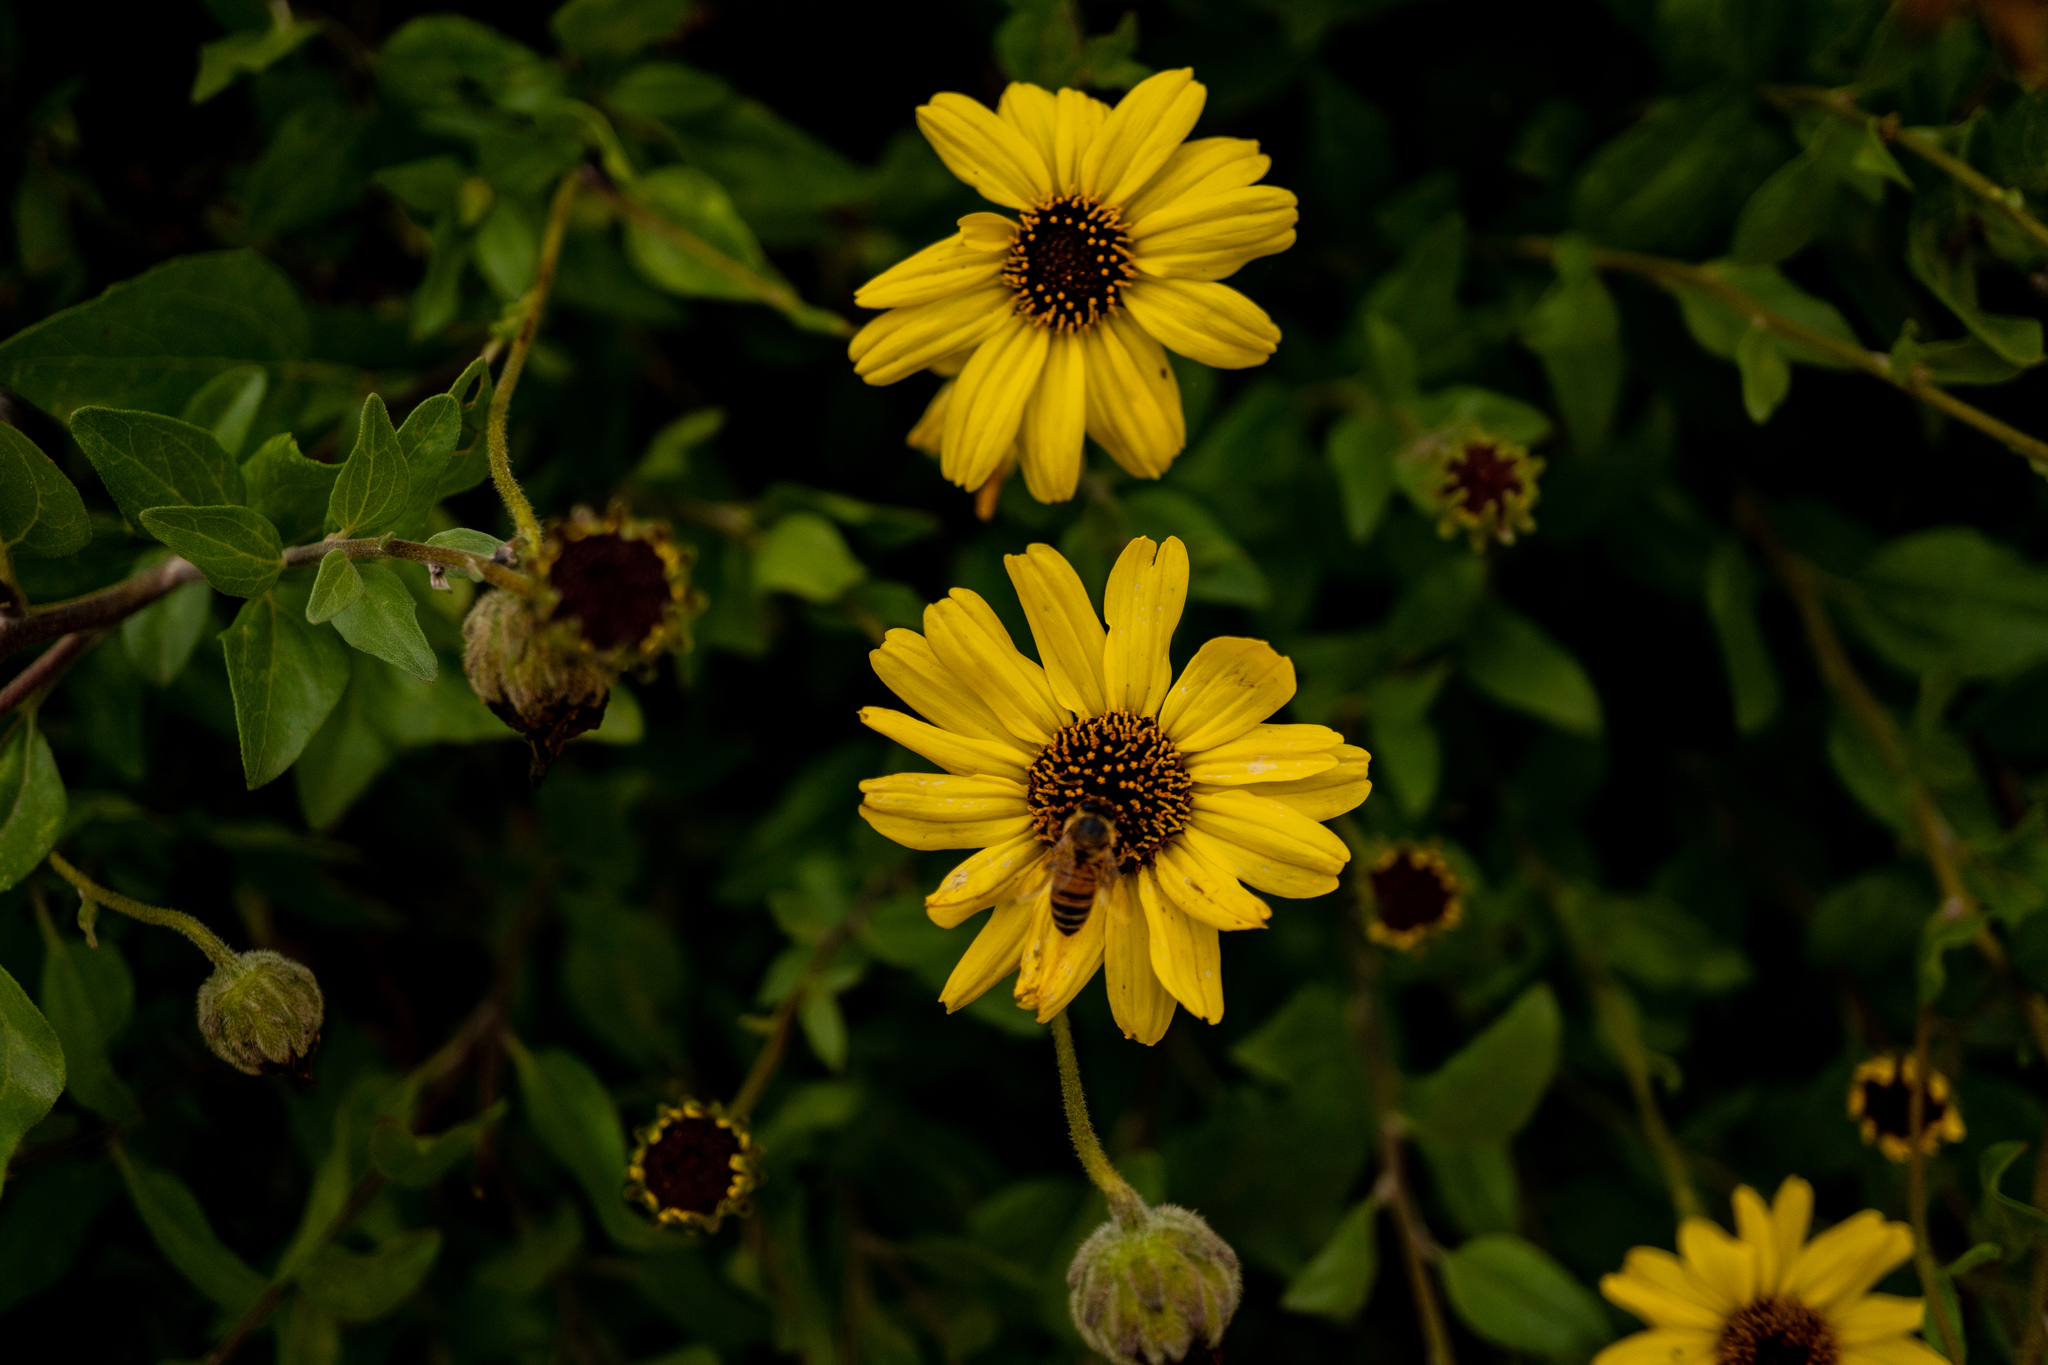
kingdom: Plantae
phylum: Tracheophyta
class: Magnoliopsida
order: Asterales
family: Asteraceae
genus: Encelia
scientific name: Encelia californica
